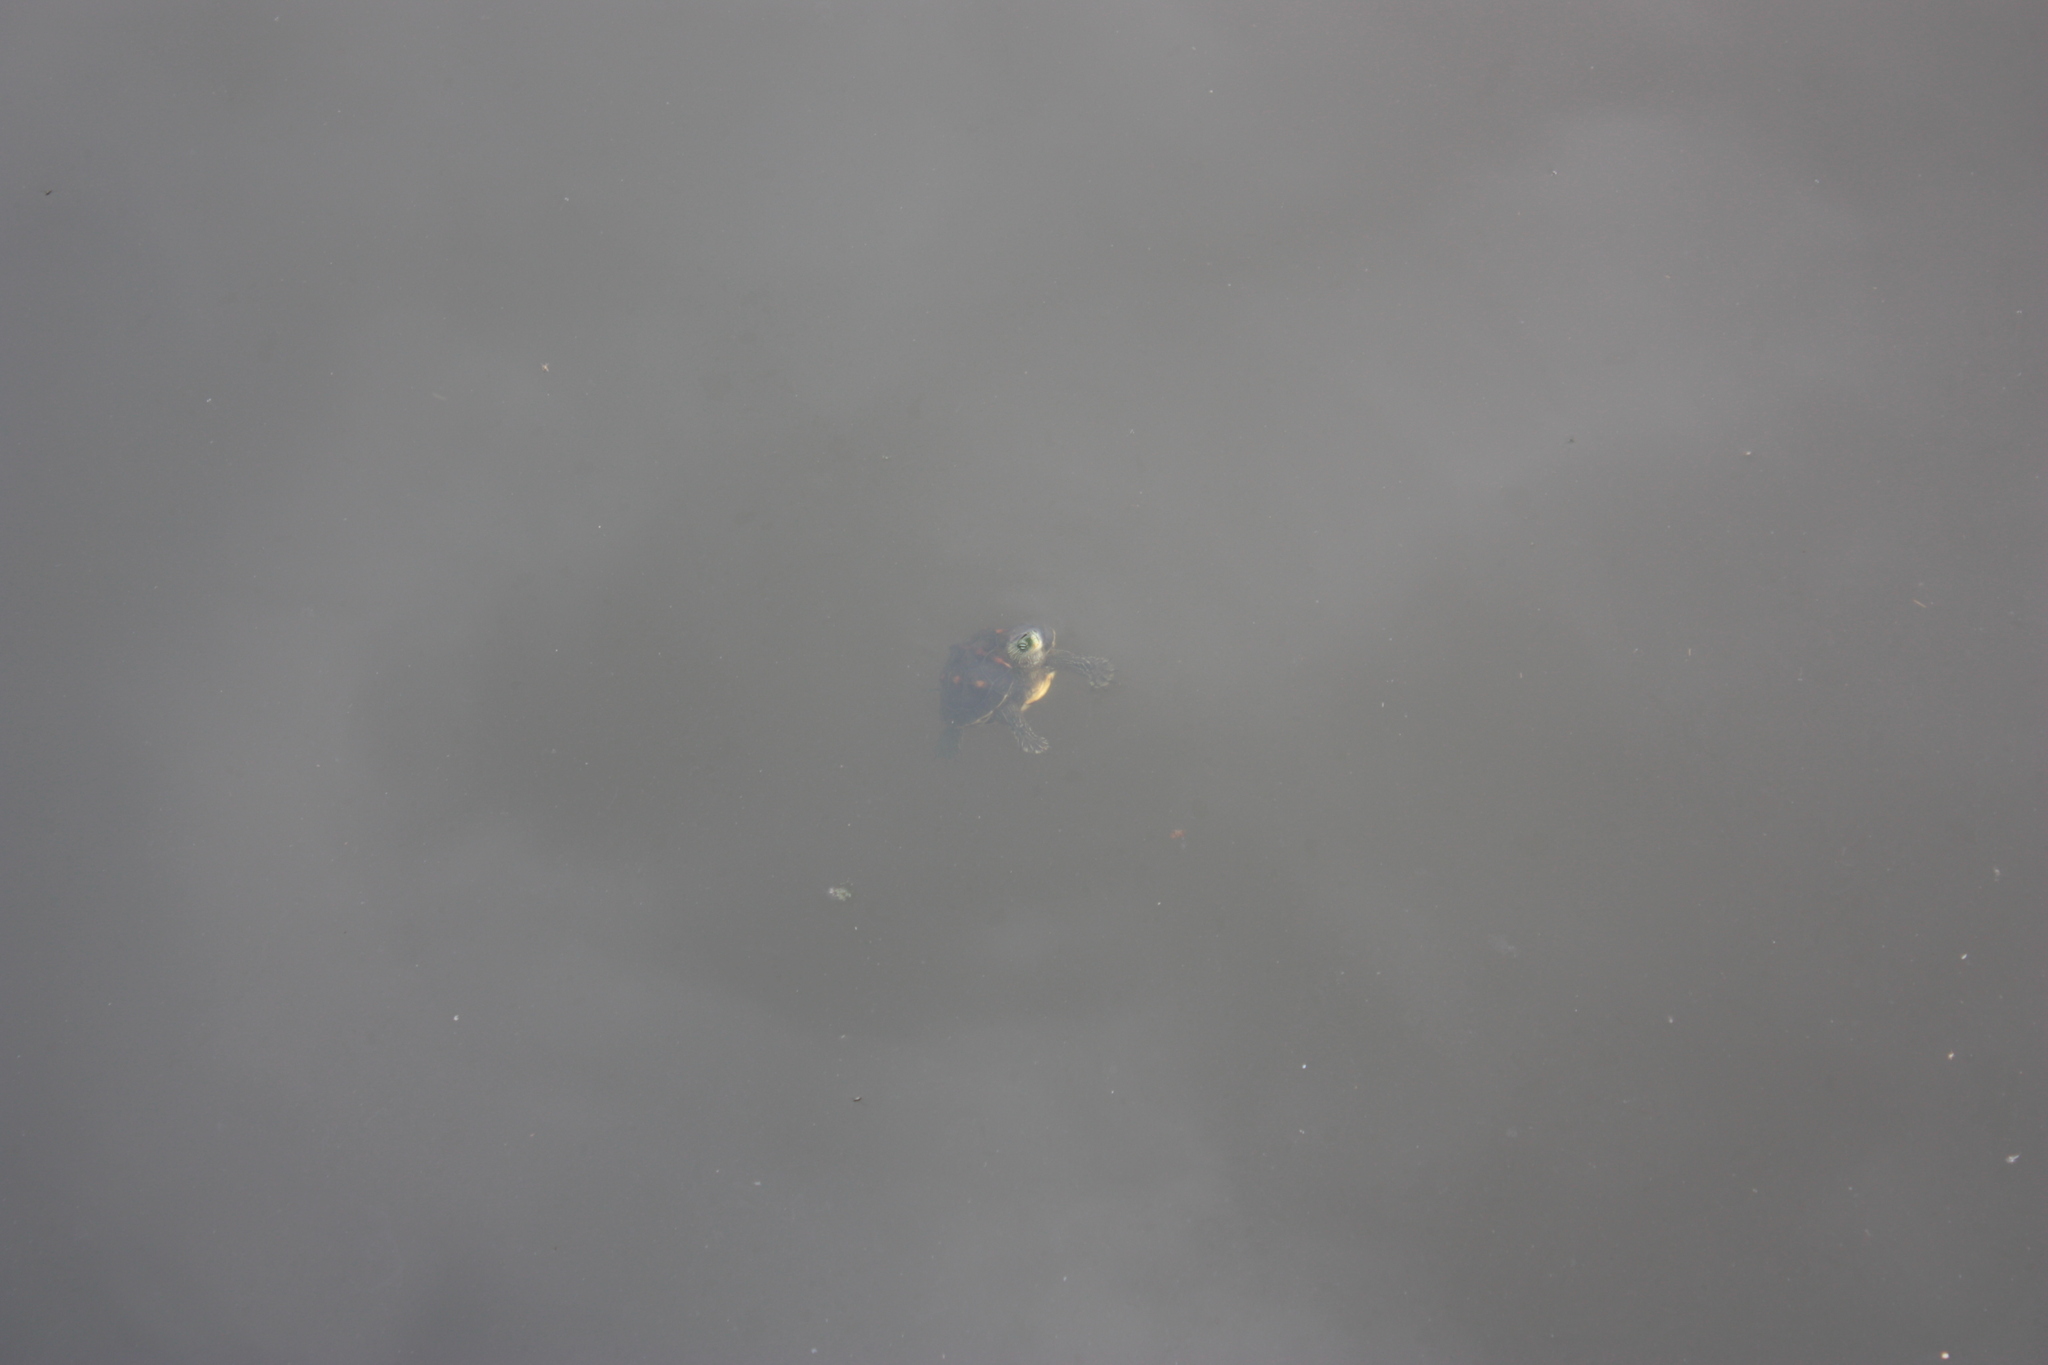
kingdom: Animalia
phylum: Chordata
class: Testudines
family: Geoemydidae
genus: Mauremys
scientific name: Mauremys sinensis
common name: Chinese stripe-necked turtle
